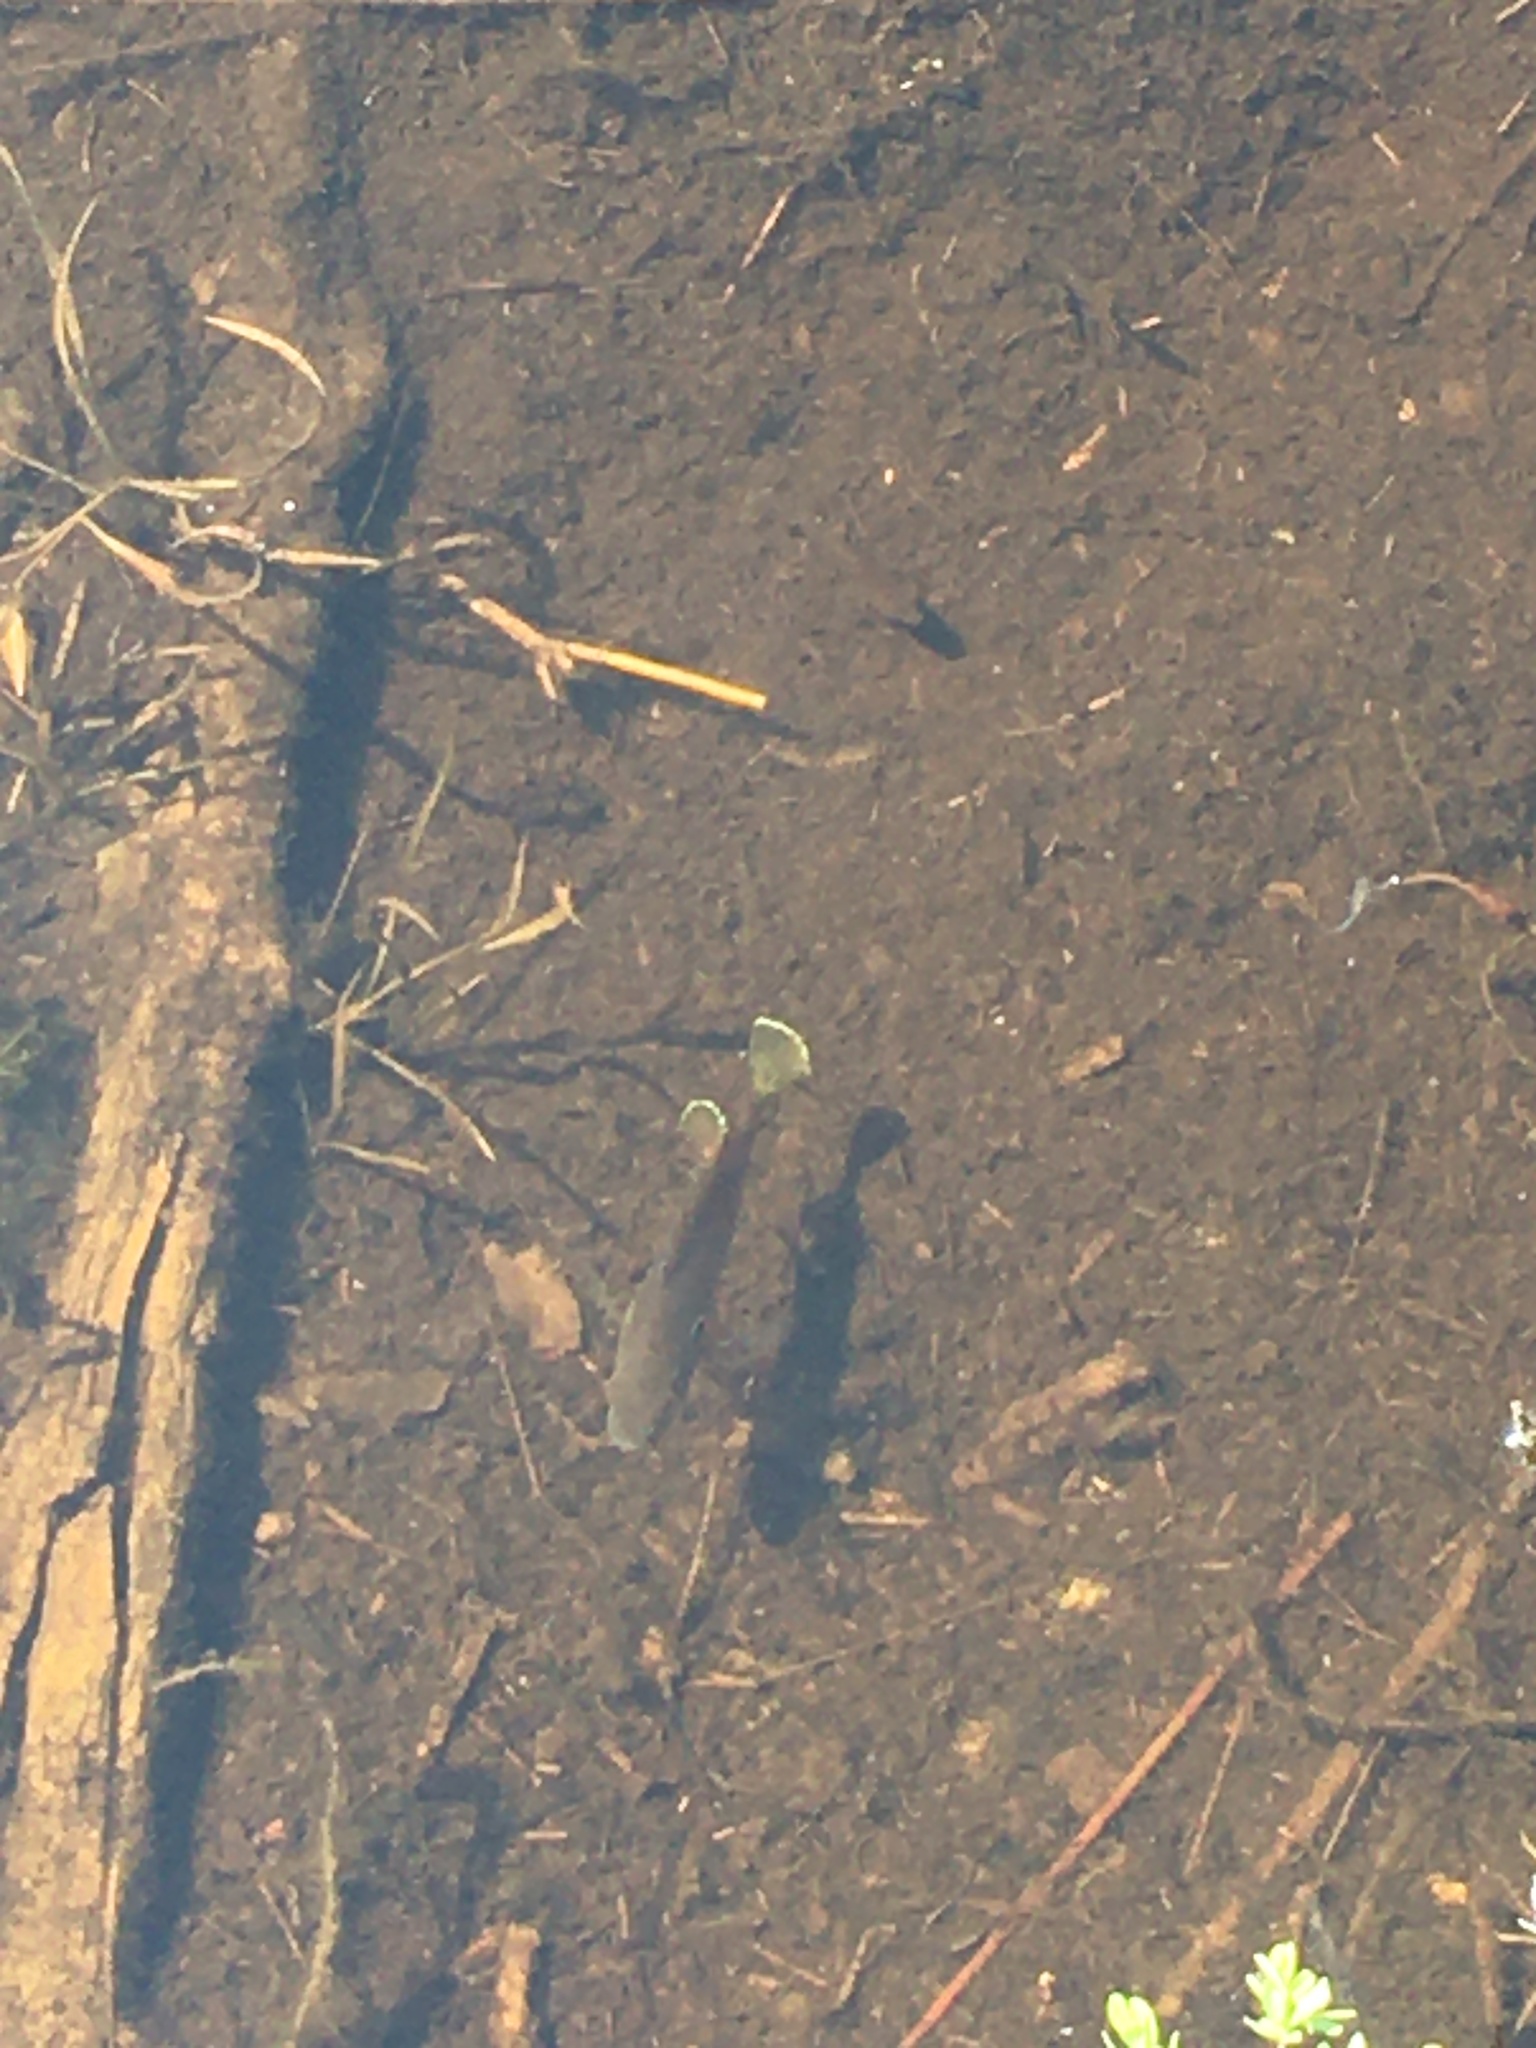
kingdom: Animalia
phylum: Chordata
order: Perciformes
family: Centrarchidae
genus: Lepomis
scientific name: Lepomis gibbosus
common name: Pumpkinseed
